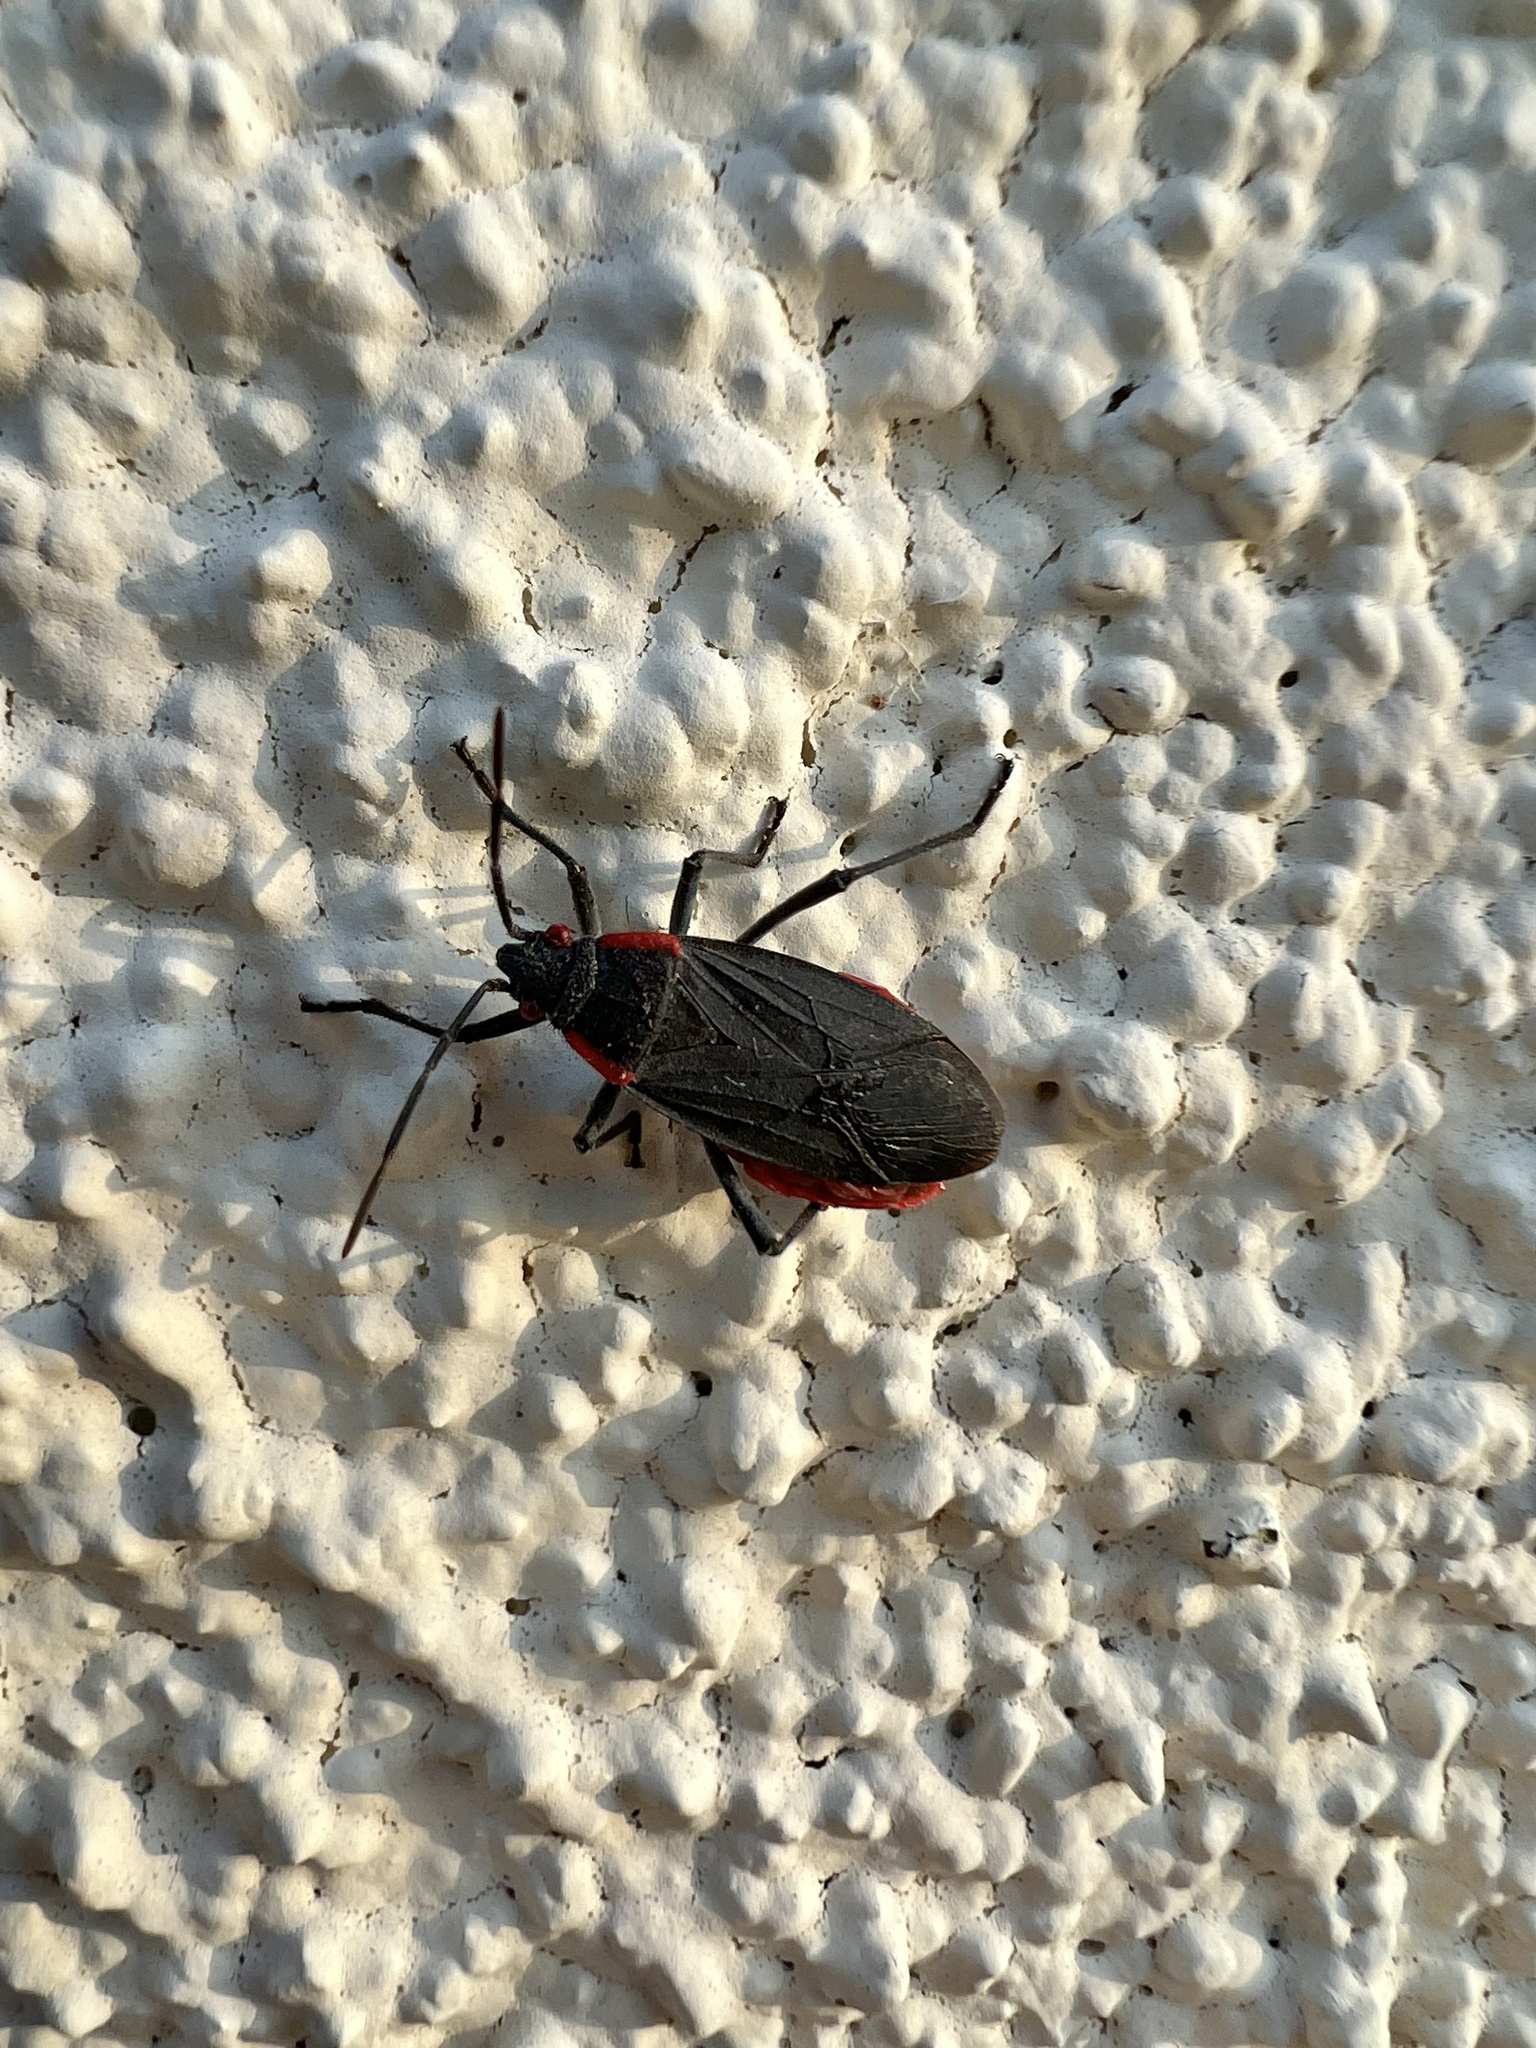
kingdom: Animalia
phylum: Arthropoda
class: Insecta
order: Hemiptera
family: Rhopalidae
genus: Jadera
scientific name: Jadera haematoloma
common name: Red-shouldered bug
